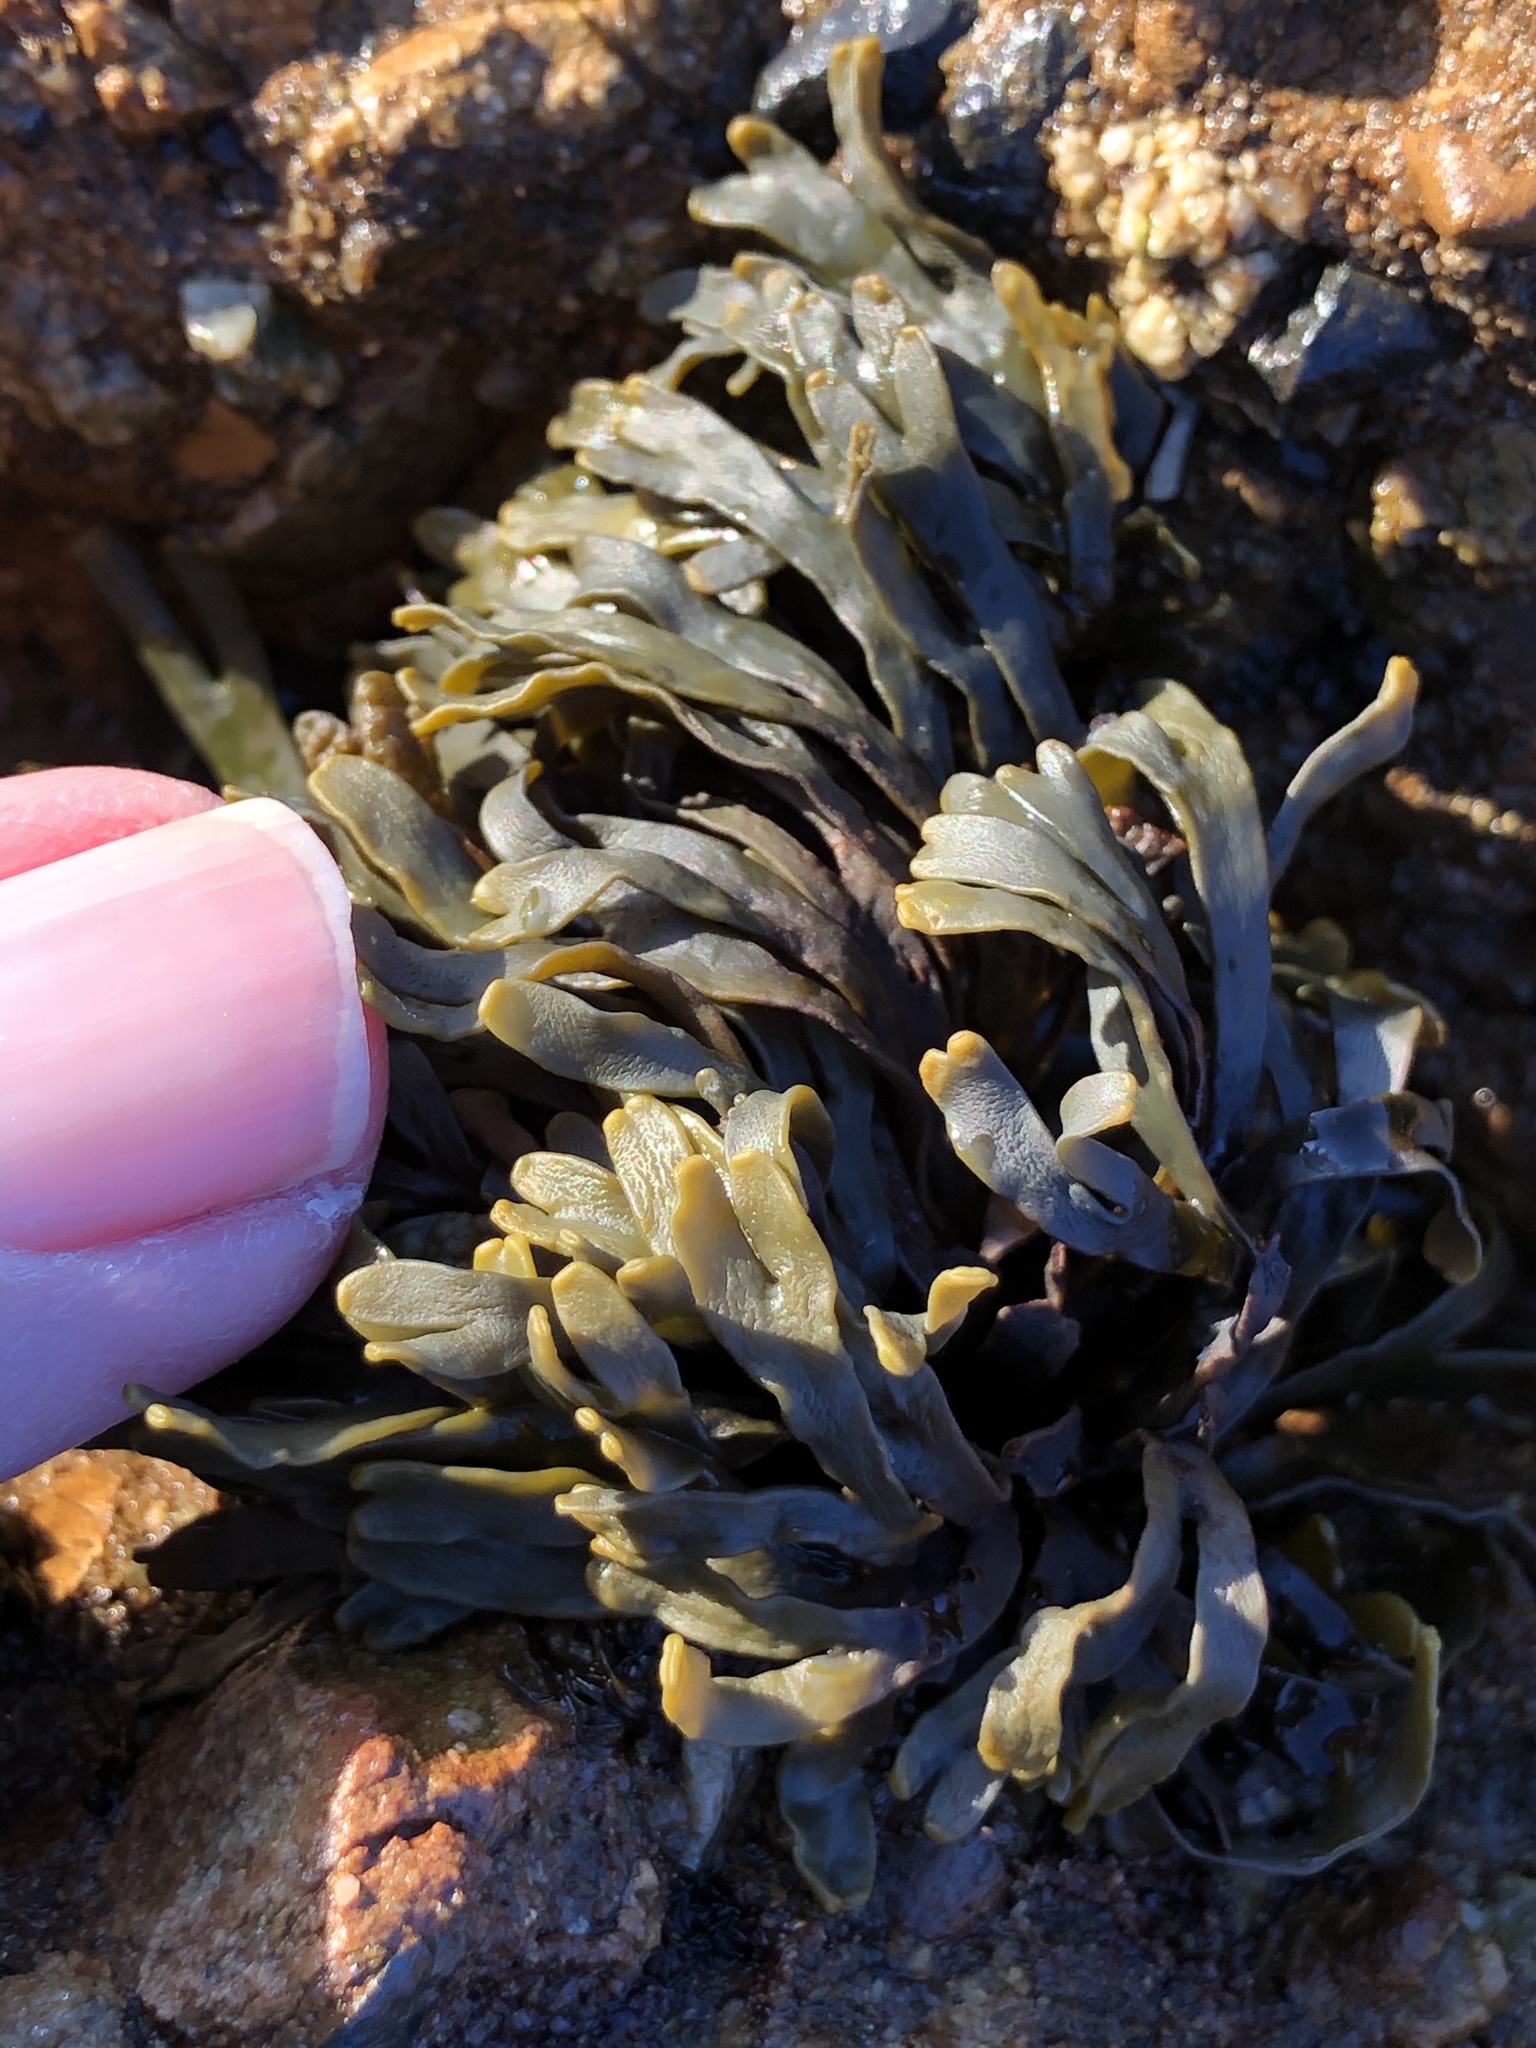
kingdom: Chromista
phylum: Ochrophyta
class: Phaeophyceae
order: Fucales
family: Fucaceae
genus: Pelvetiopsis
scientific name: Pelvetiopsis limitata
